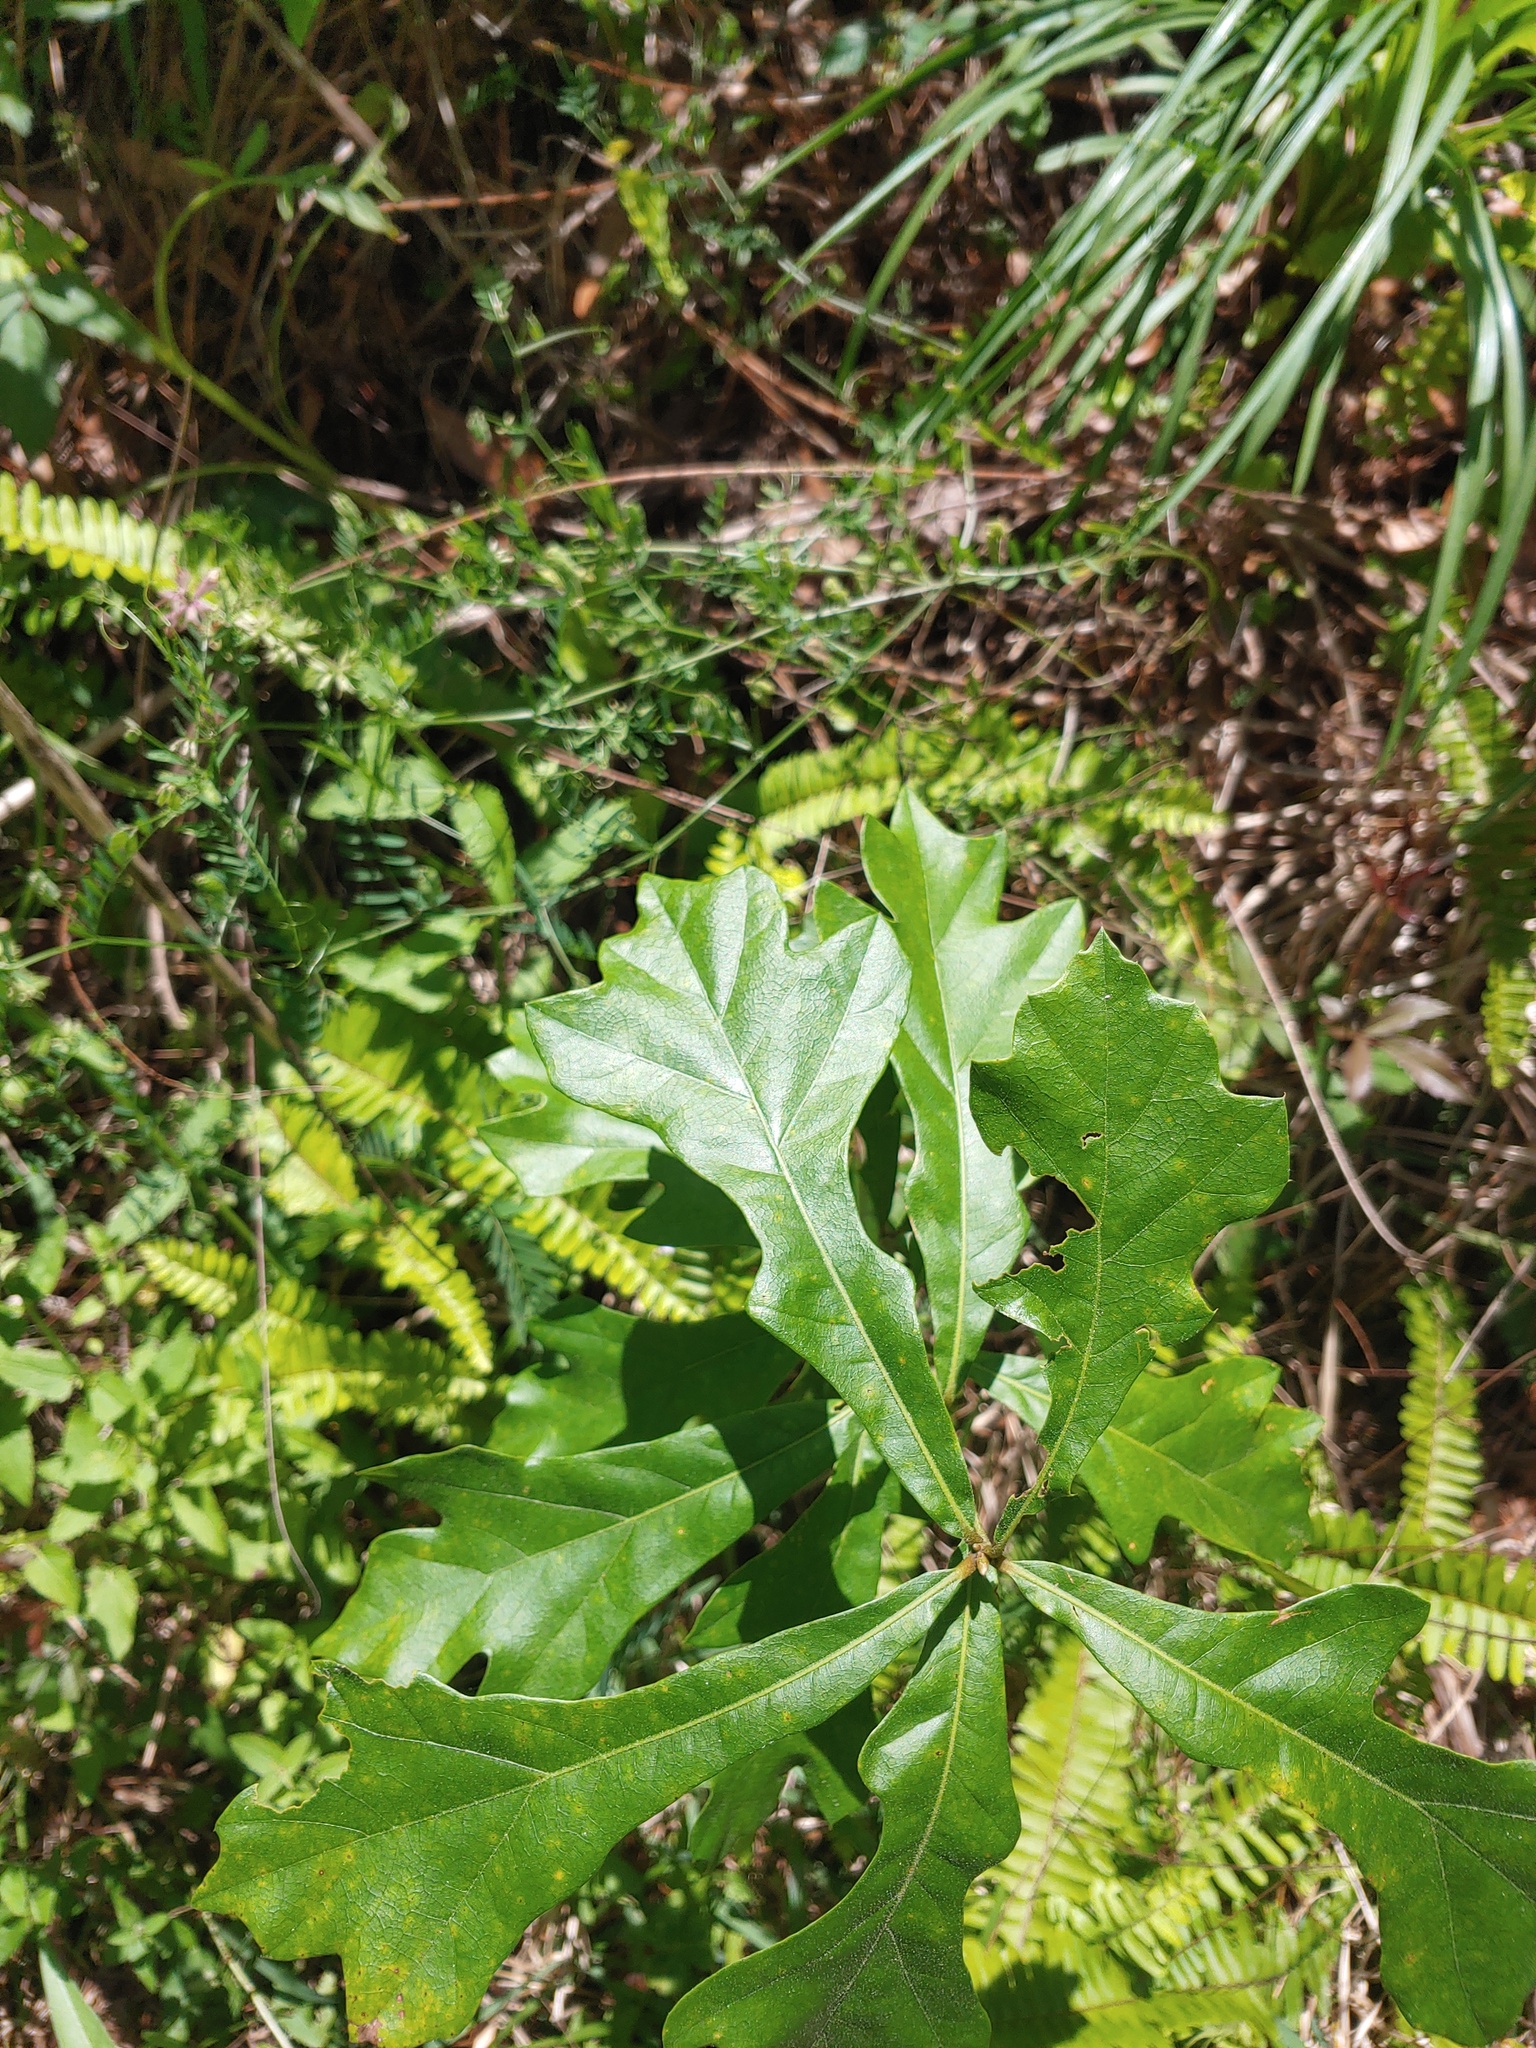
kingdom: Plantae
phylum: Tracheophyta
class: Magnoliopsida
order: Fagales
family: Fagaceae
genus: Quercus
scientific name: Quercus nigra
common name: Water oak
